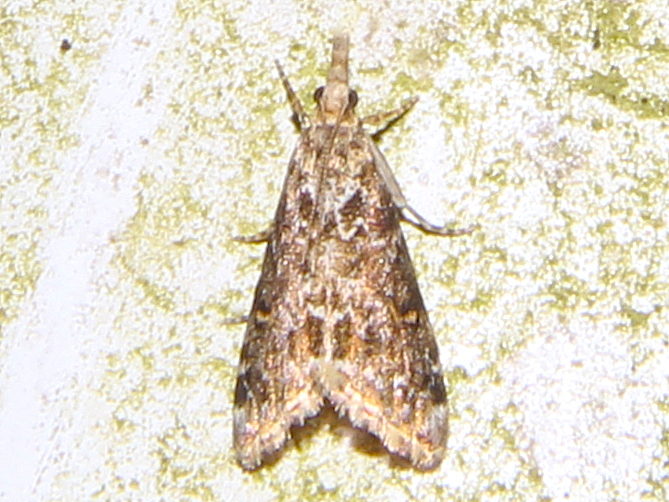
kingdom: Animalia
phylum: Arthropoda
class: Insecta
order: Lepidoptera
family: Crambidae
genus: Glaucocharis
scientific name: Glaucocharis elaina
